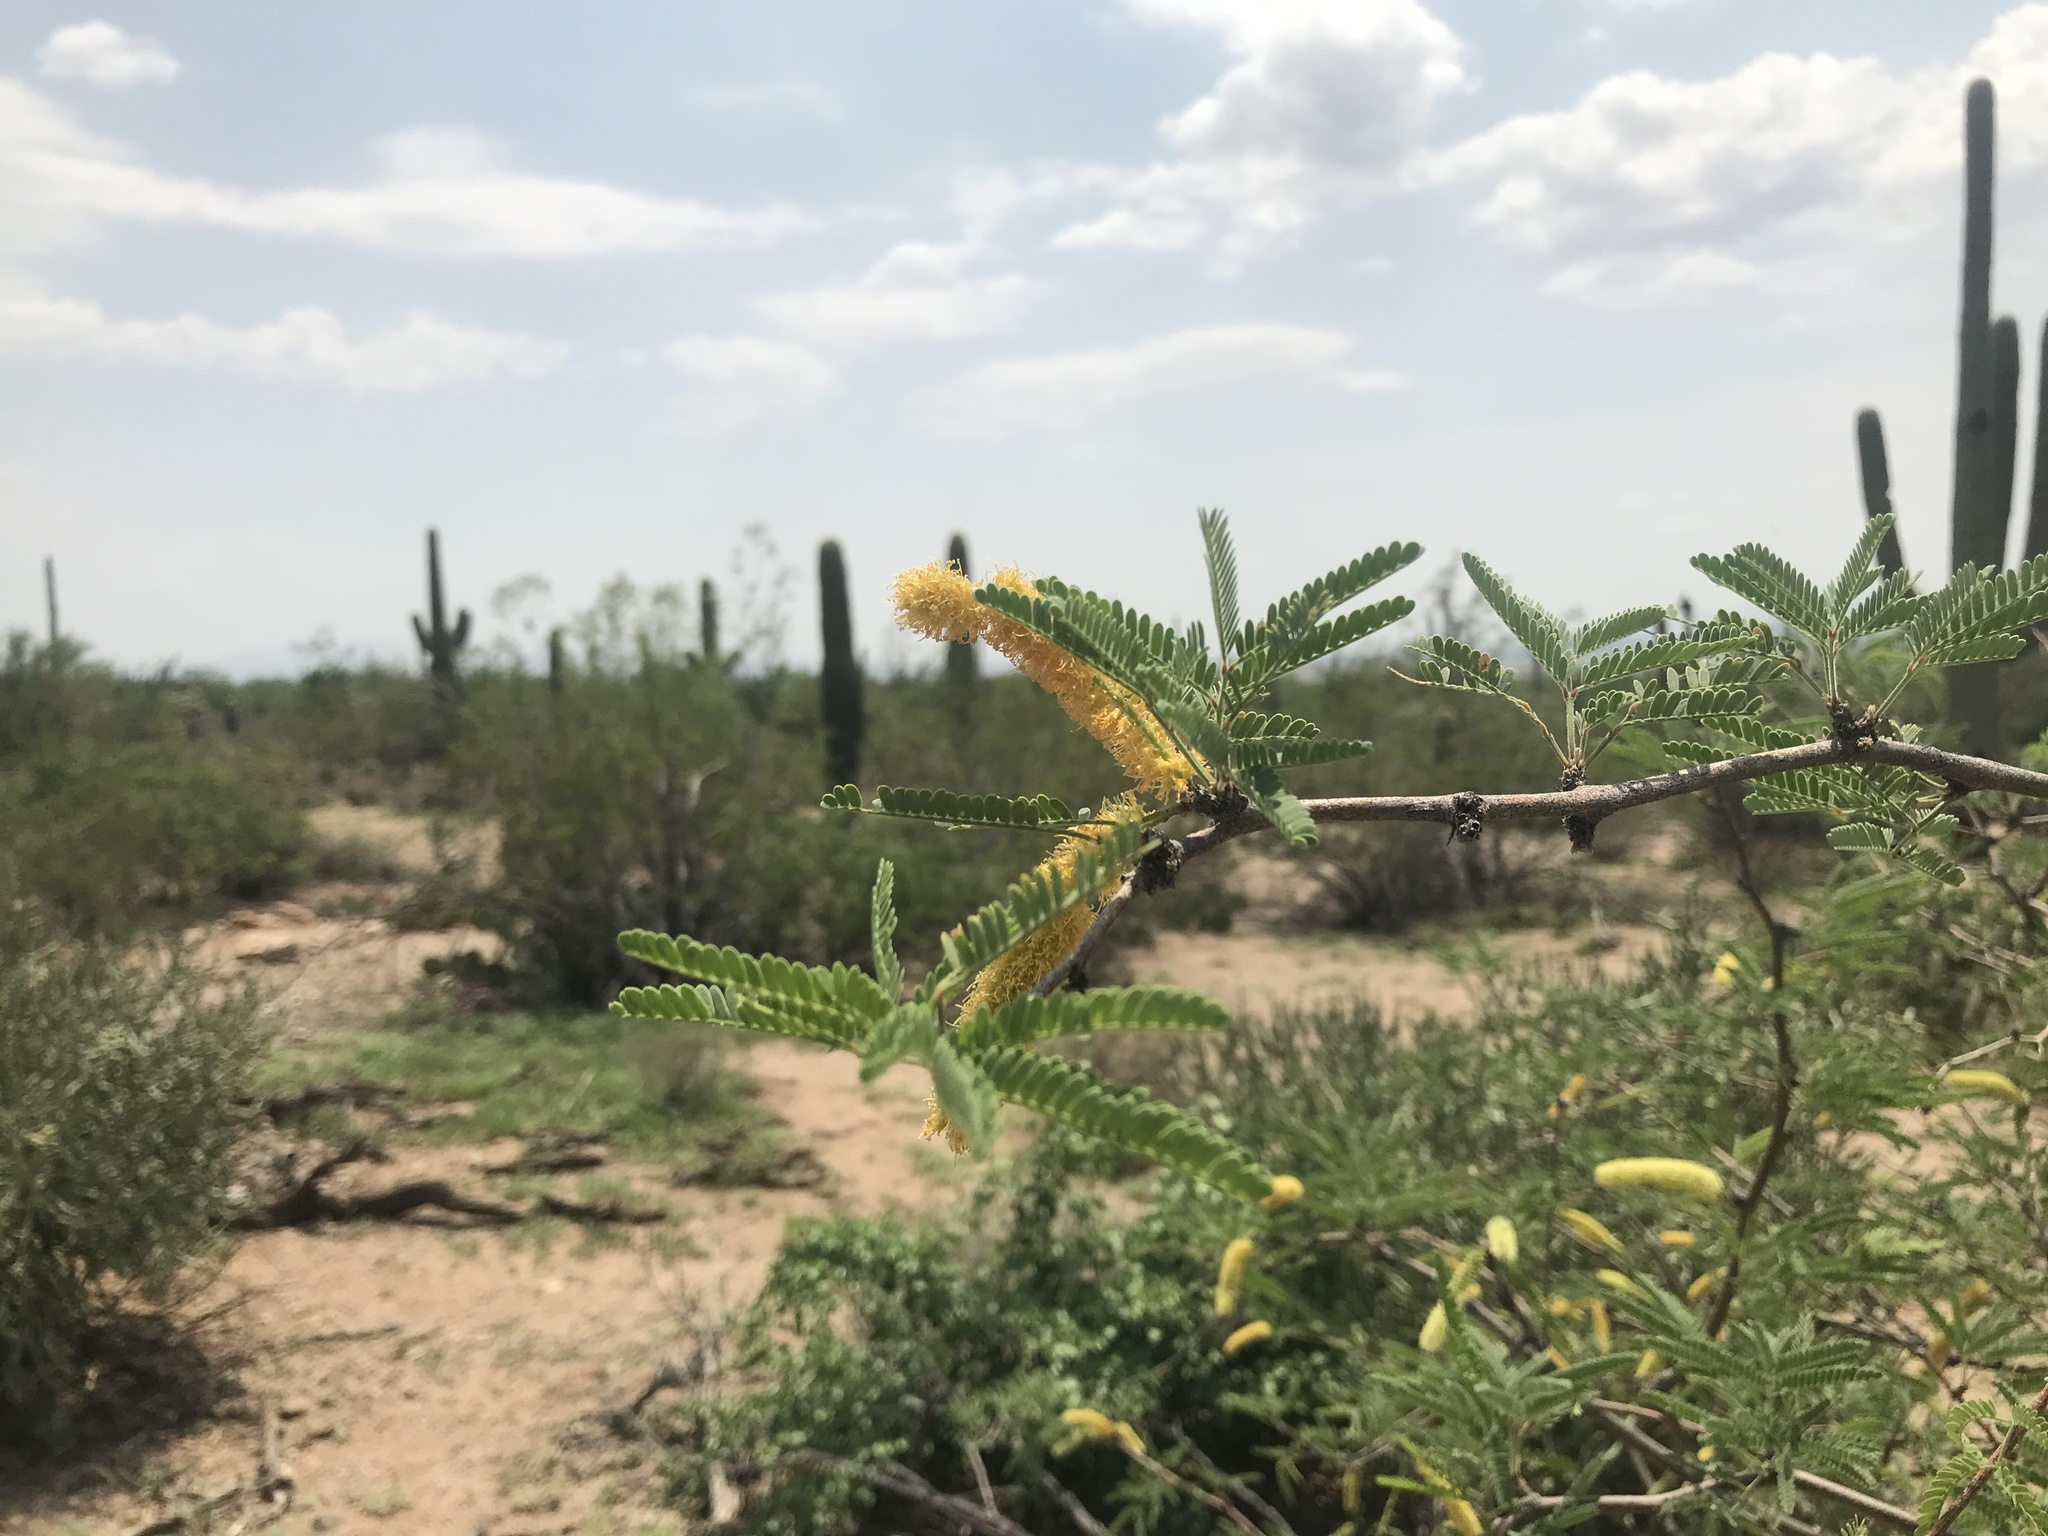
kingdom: Plantae
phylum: Tracheophyta
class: Magnoliopsida
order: Fabales
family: Fabaceae
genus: Prosopis
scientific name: Prosopis velutina
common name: Velvet mesquite
